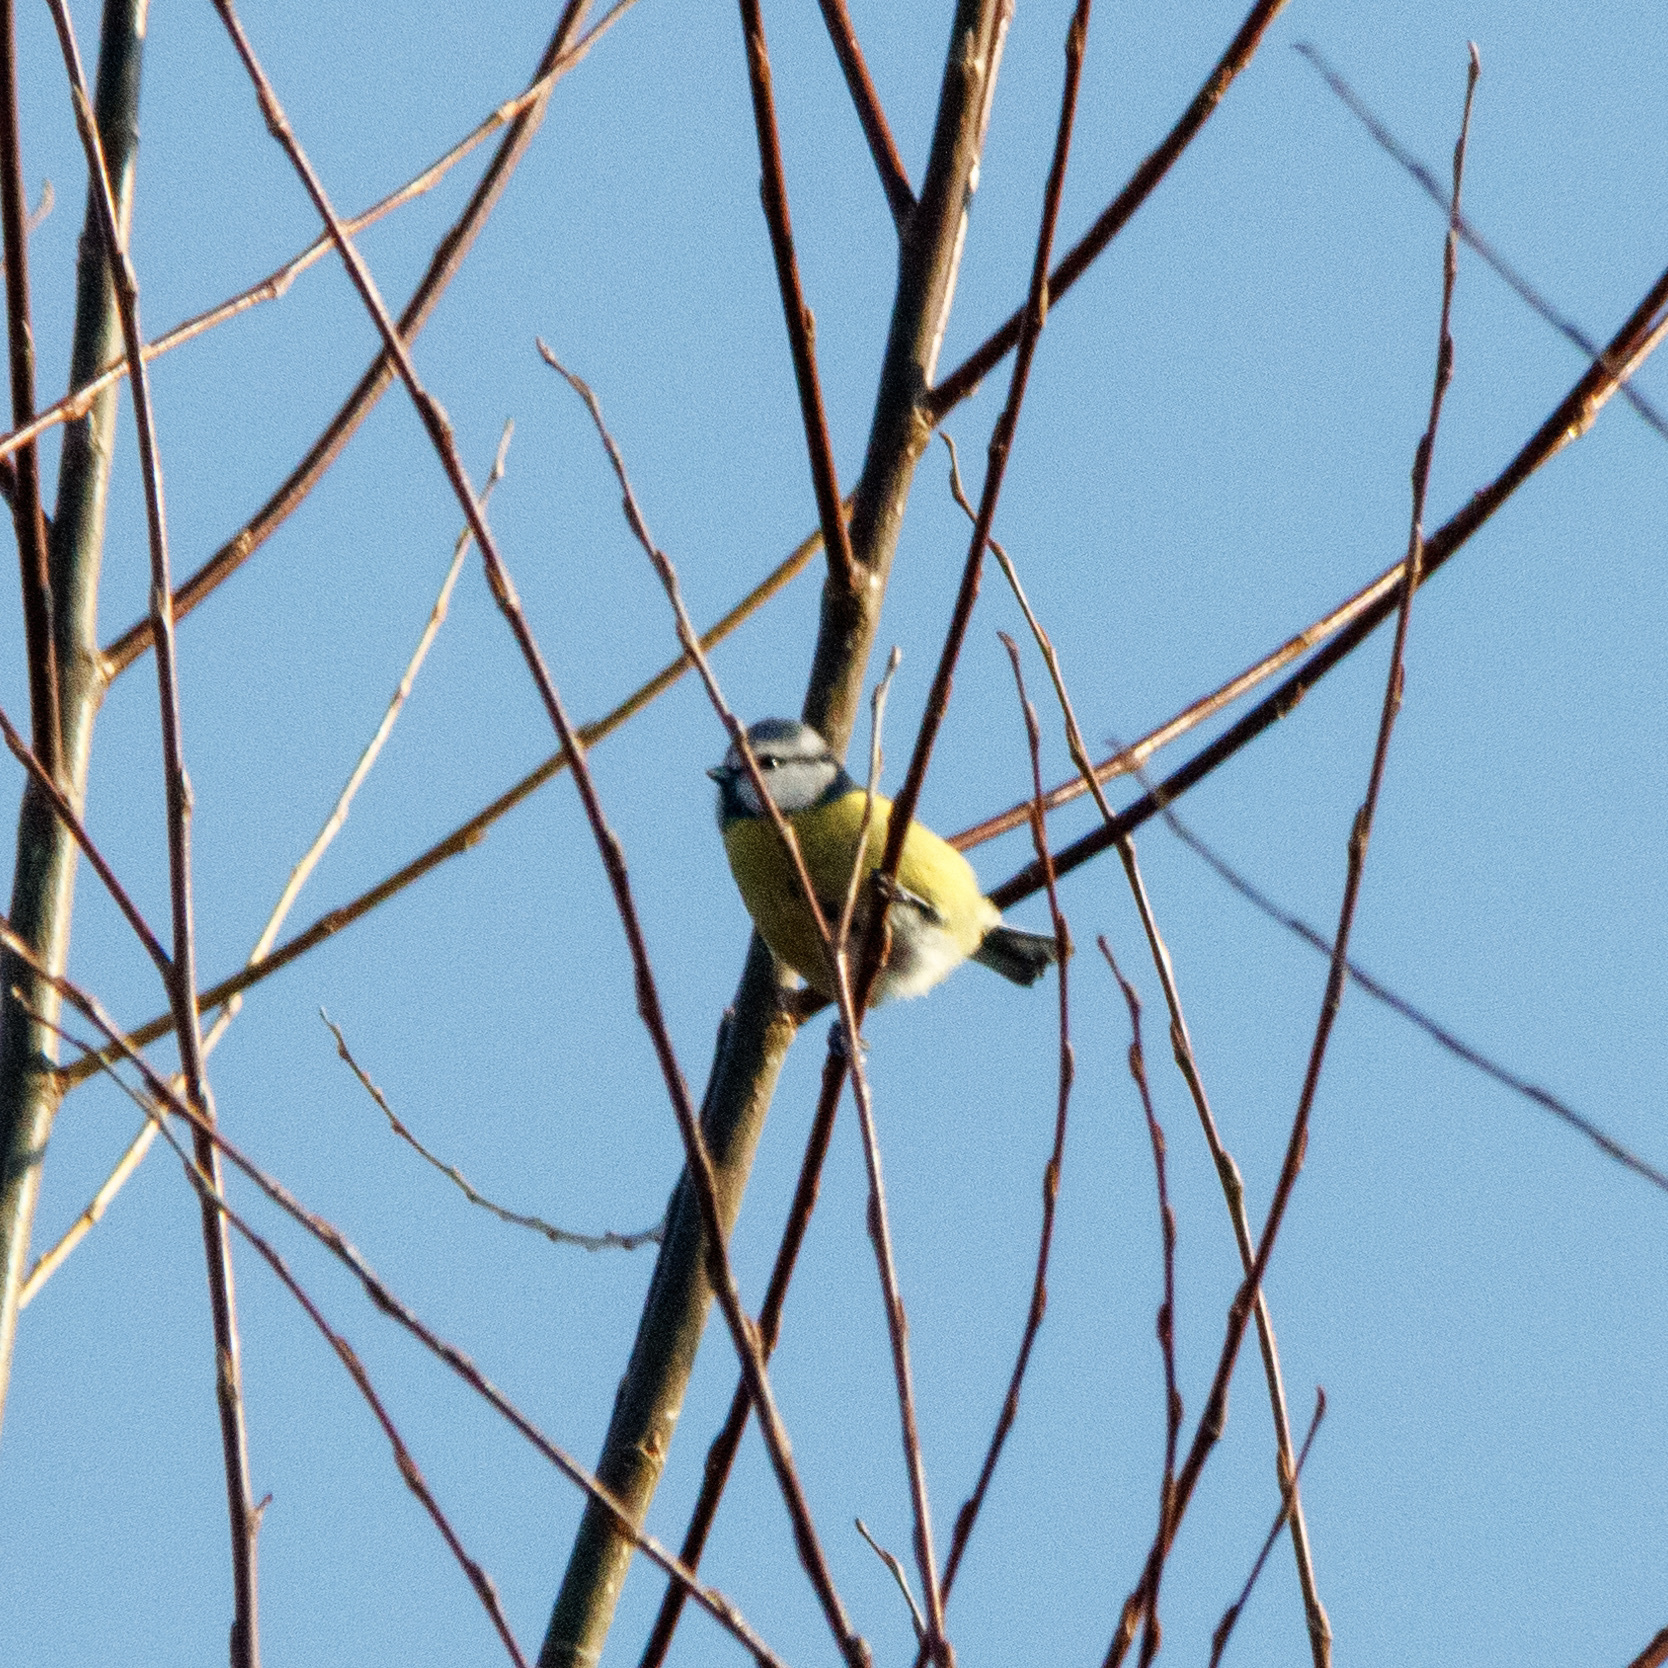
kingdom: Animalia
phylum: Chordata
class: Aves
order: Passeriformes
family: Paridae
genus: Cyanistes
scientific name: Cyanistes caeruleus
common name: Eurasian blue tit
